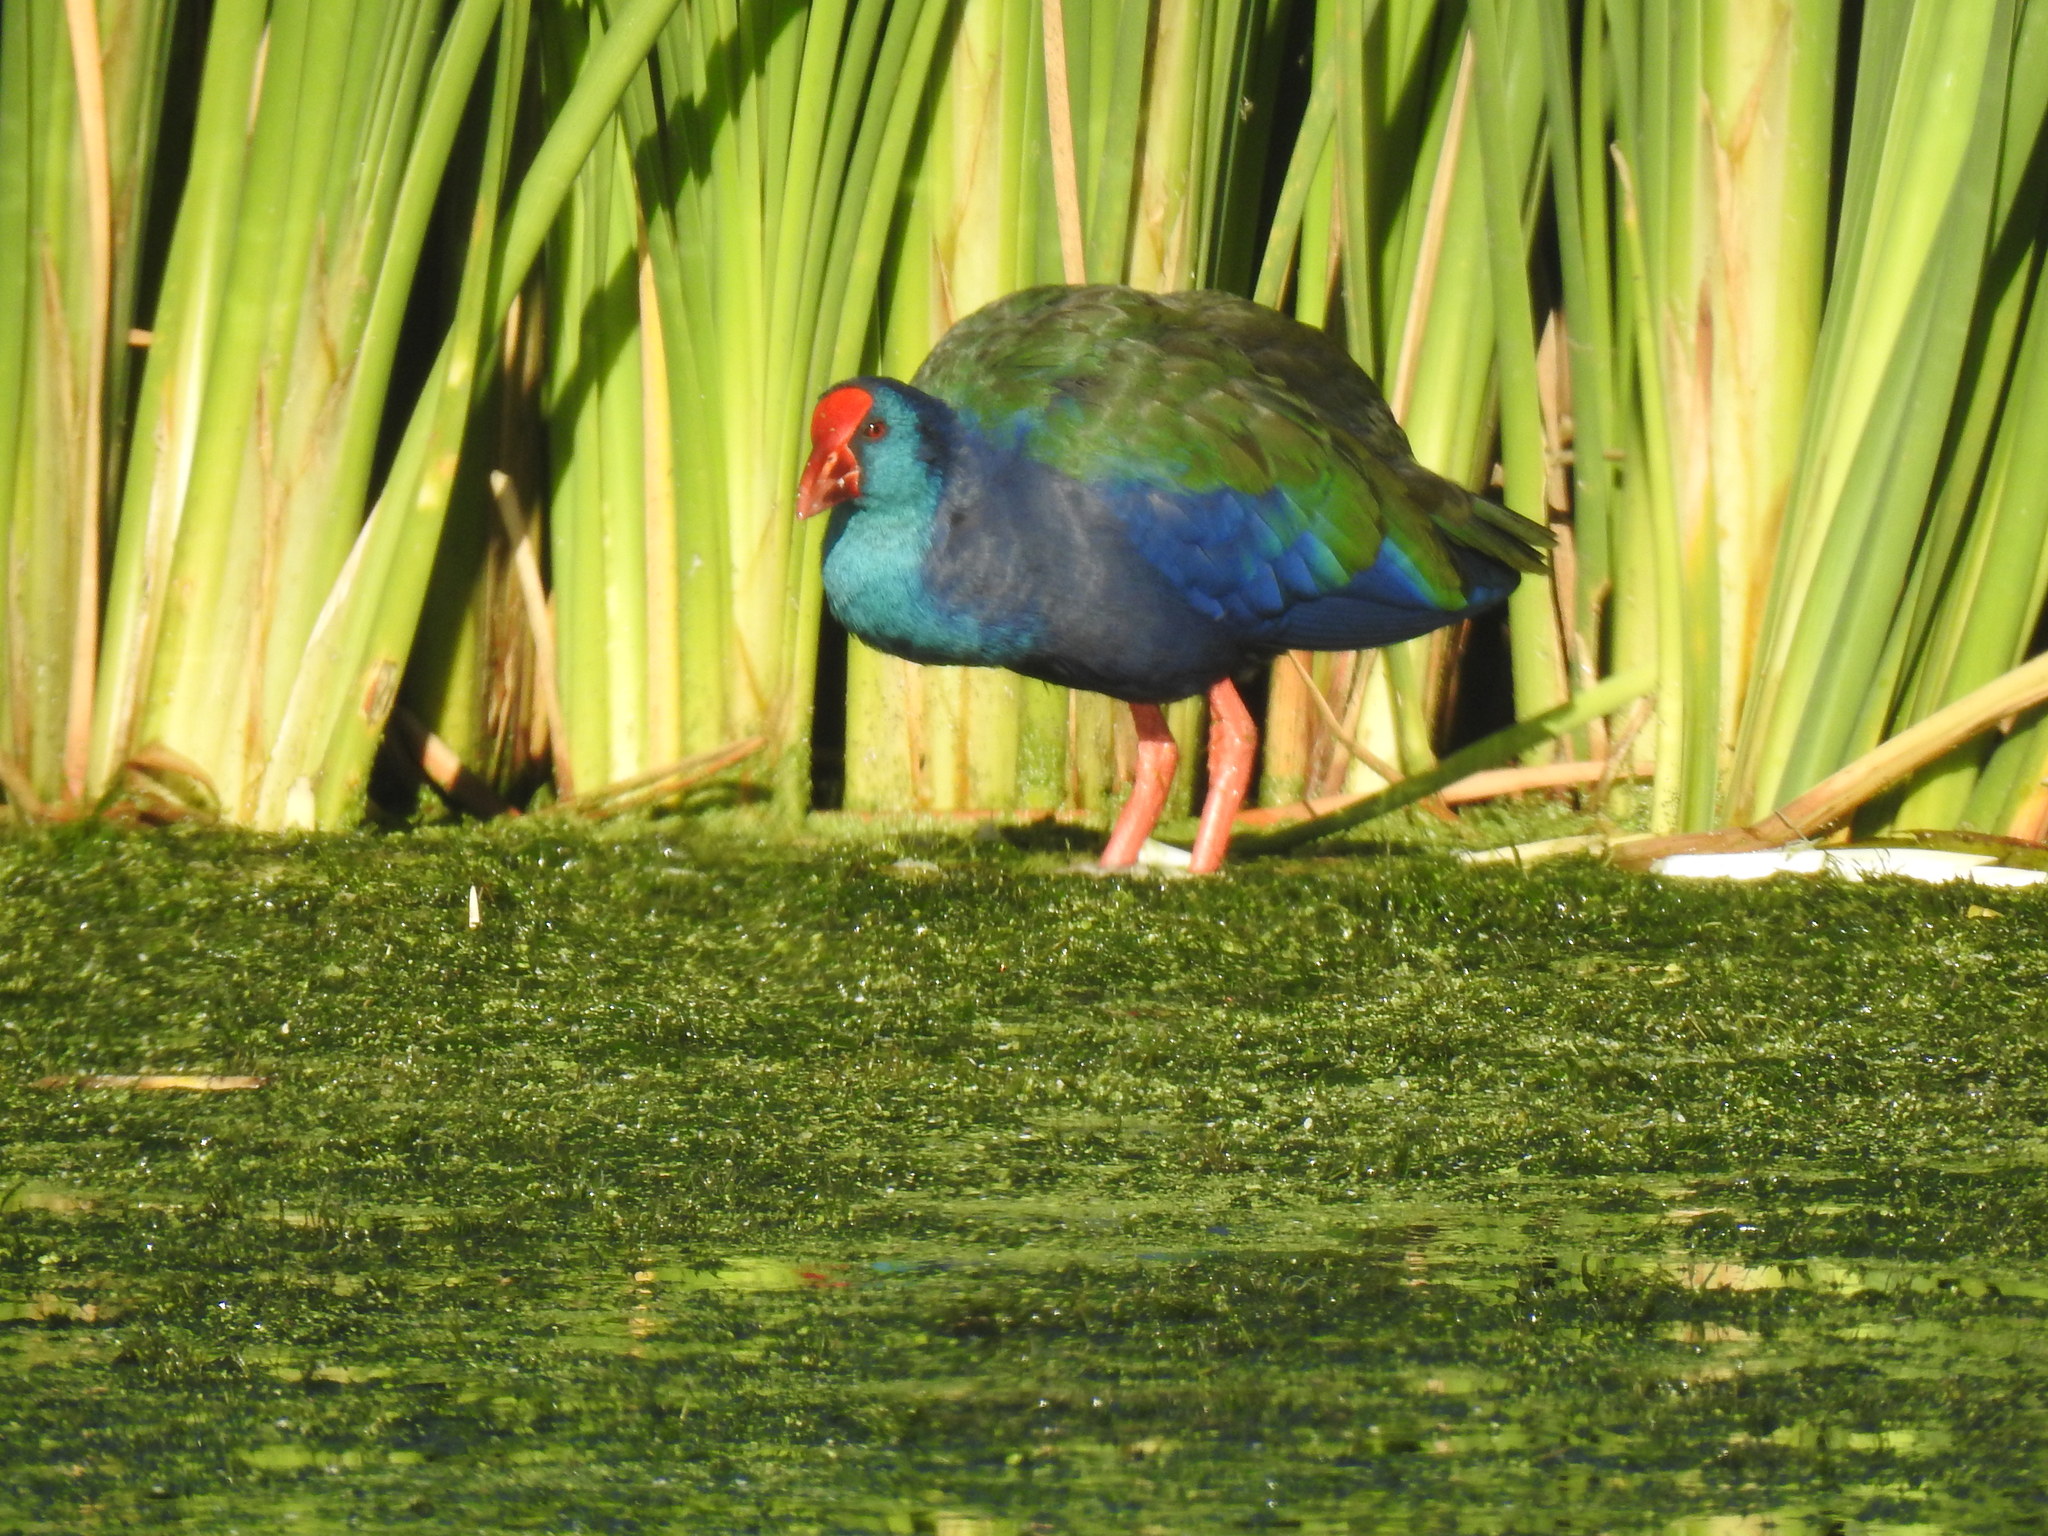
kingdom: Animalia
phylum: Chordata
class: Aves
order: Gruiformes
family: Rallidae
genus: Porphyrio
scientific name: Porphyrio porphyrio
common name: Purple swamphen
